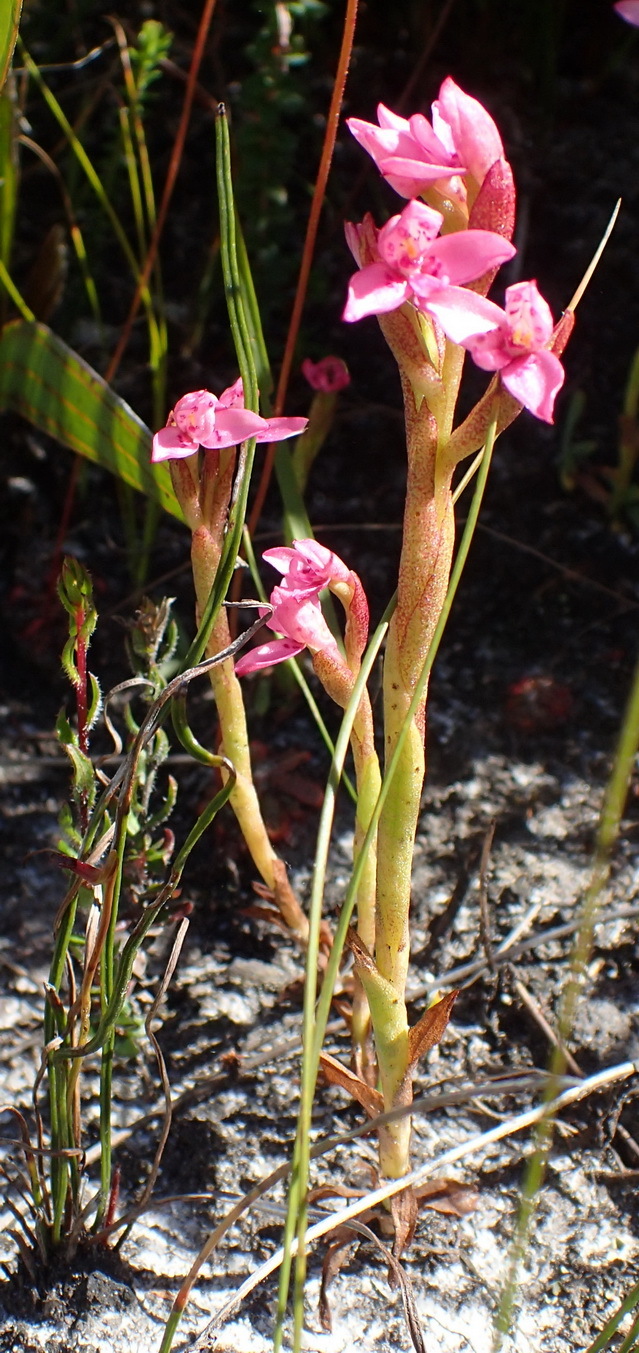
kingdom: Plantae
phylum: Tracheophyta
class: Liliopsida
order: Asparagales
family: Orchidaceae
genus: Disa
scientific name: Disa vaginata
